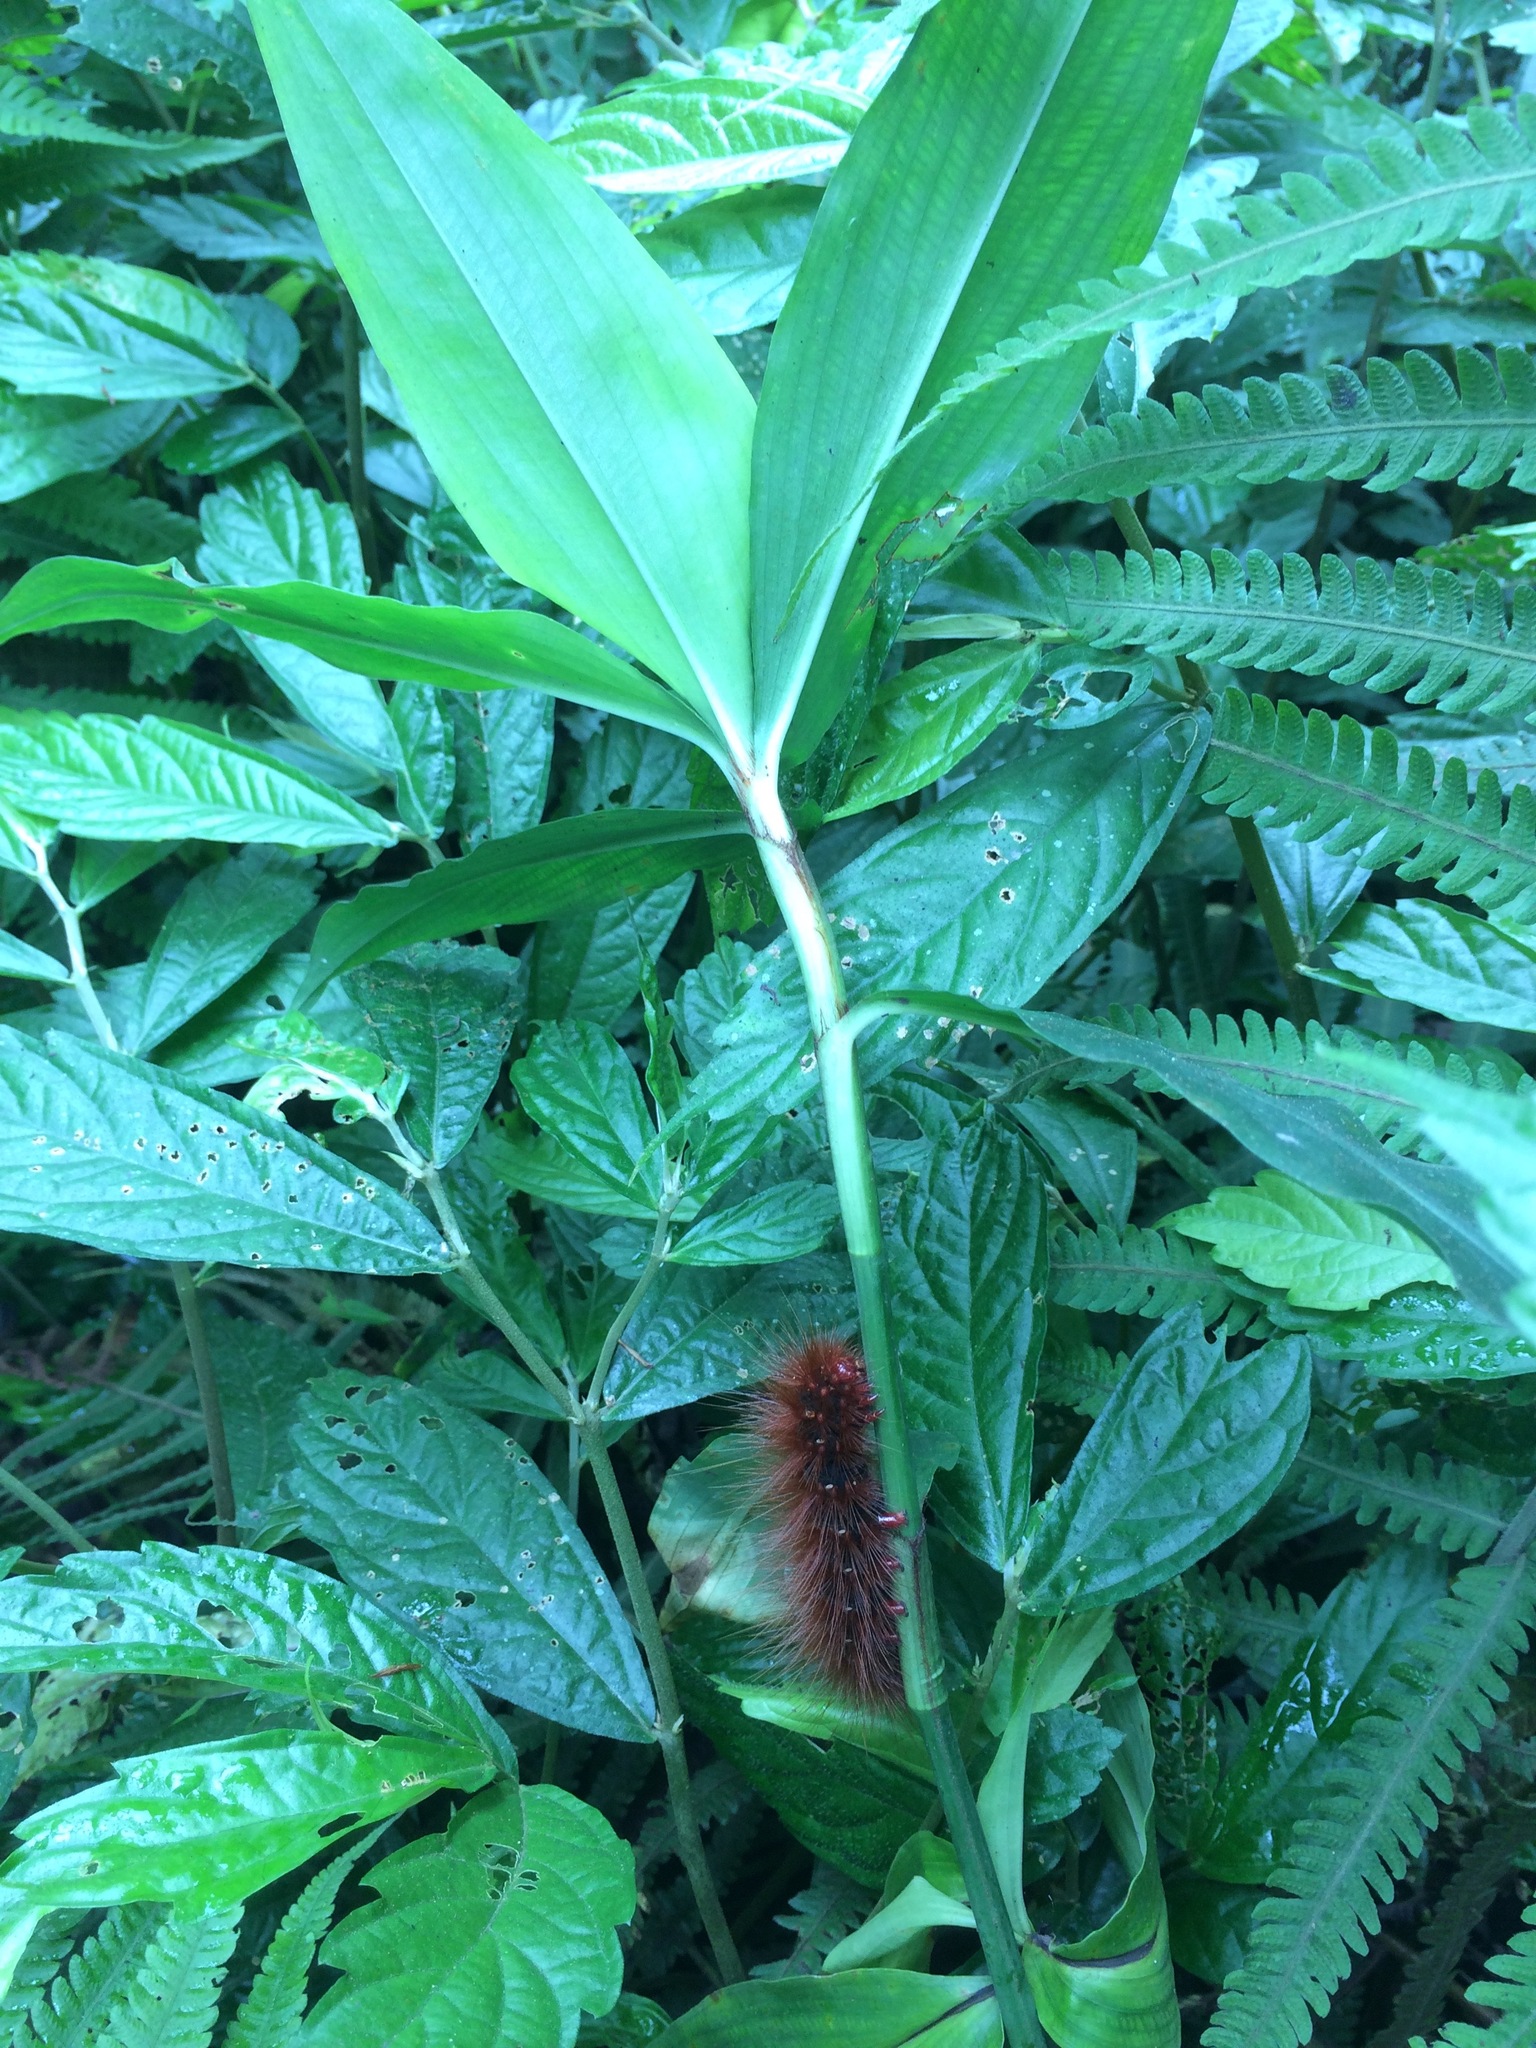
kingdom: Animalia
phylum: Arthropoda
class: Insecta
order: Lepidoptera
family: Erebidae
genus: Areas
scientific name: Areas galactina
